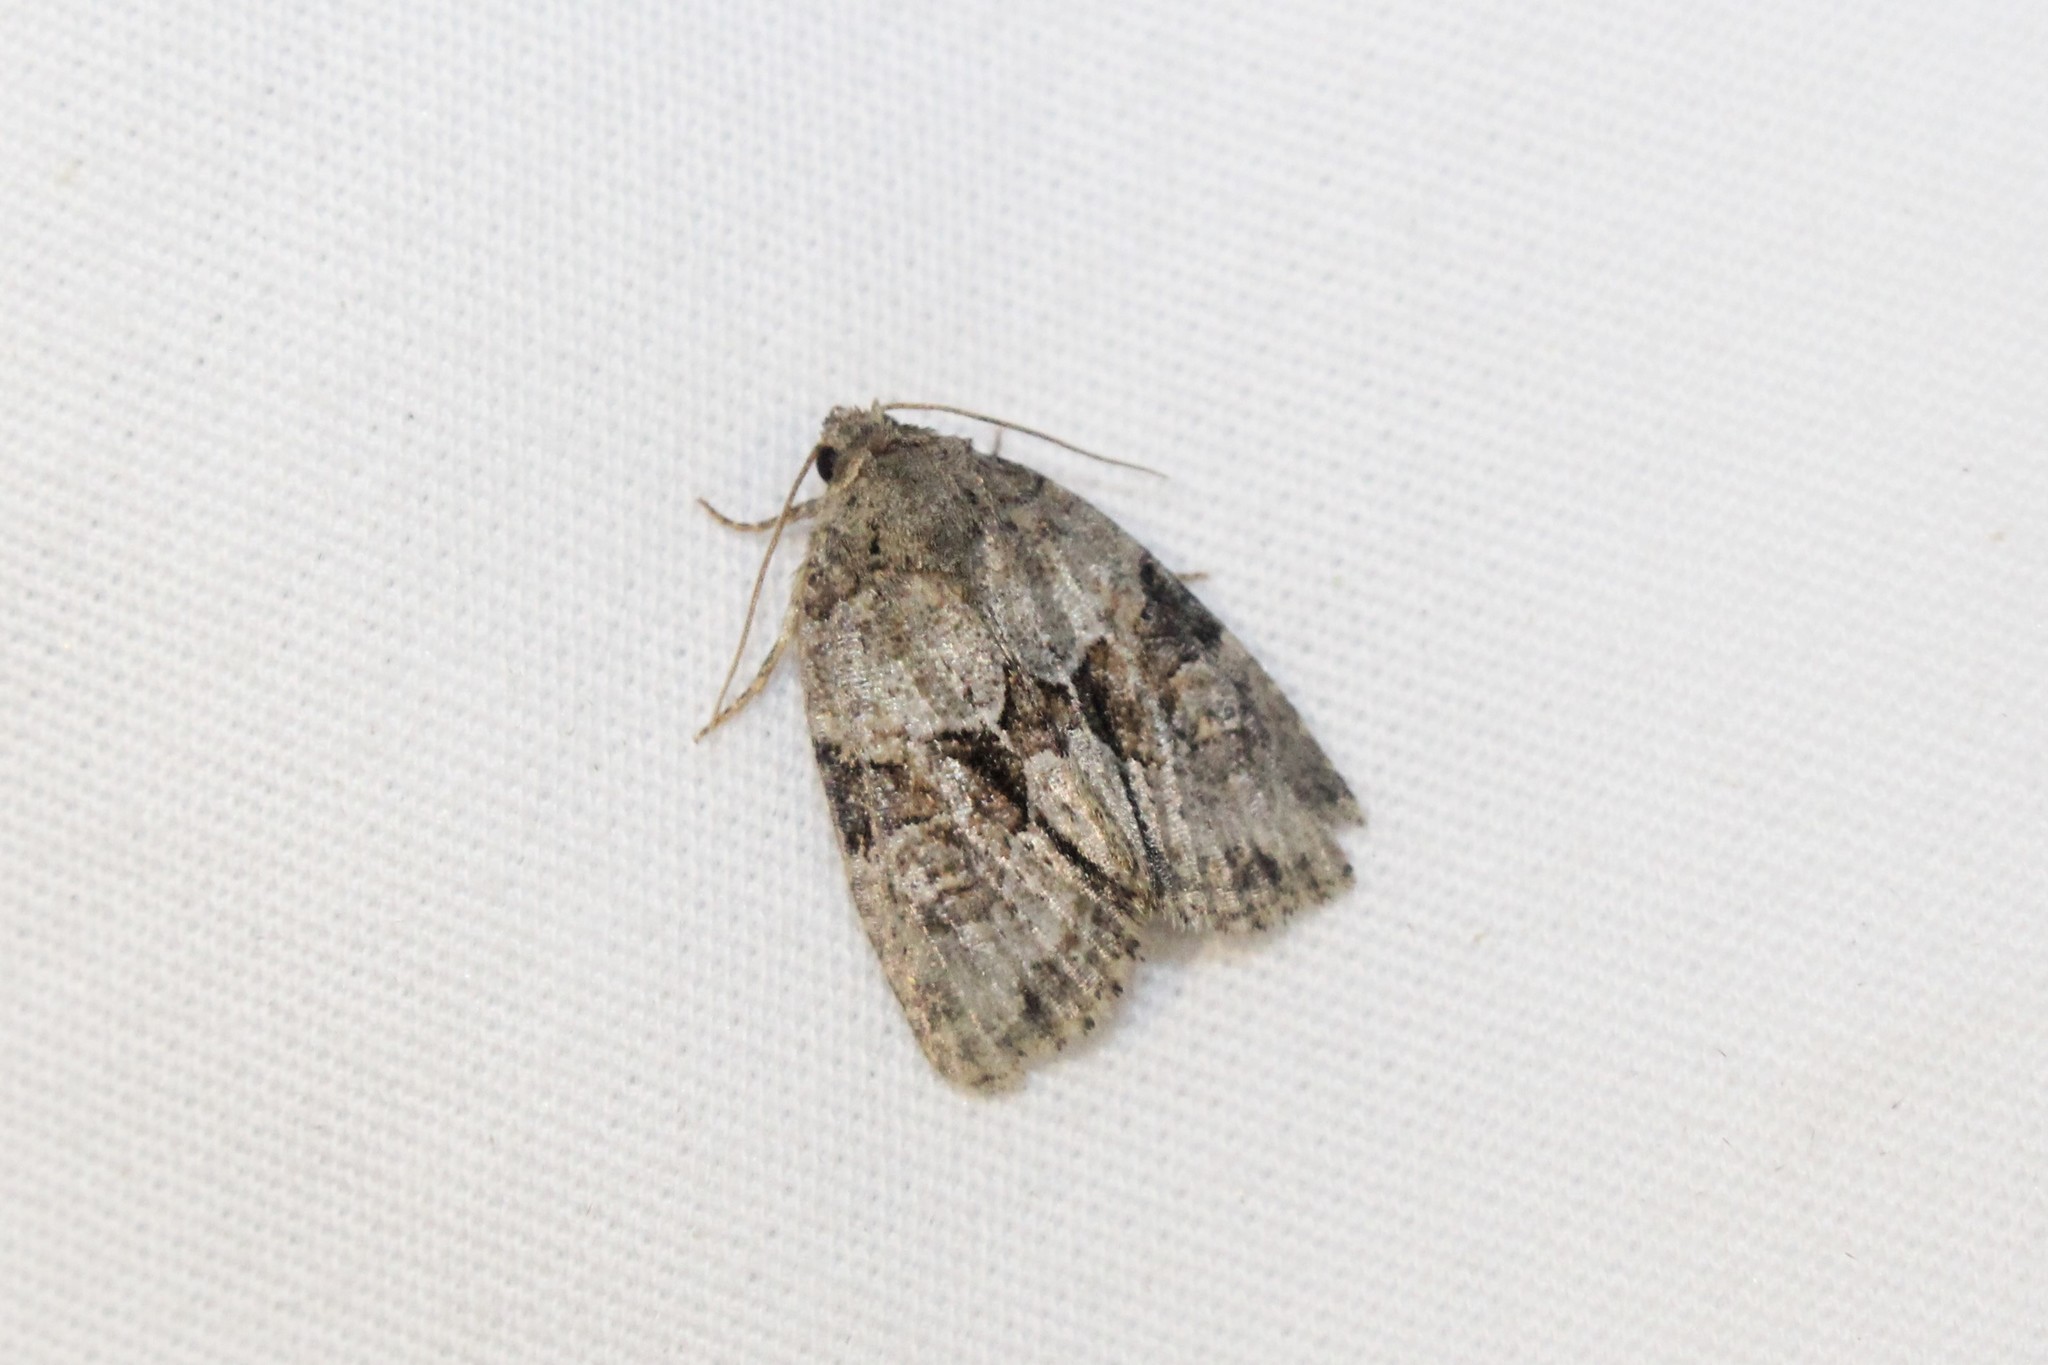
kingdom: Animalia
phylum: Arthropoda
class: Insecta
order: Lepidoptera
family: Noctuidae
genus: Neoligia
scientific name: Neoligia exhausta
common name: Exhausted brocade
